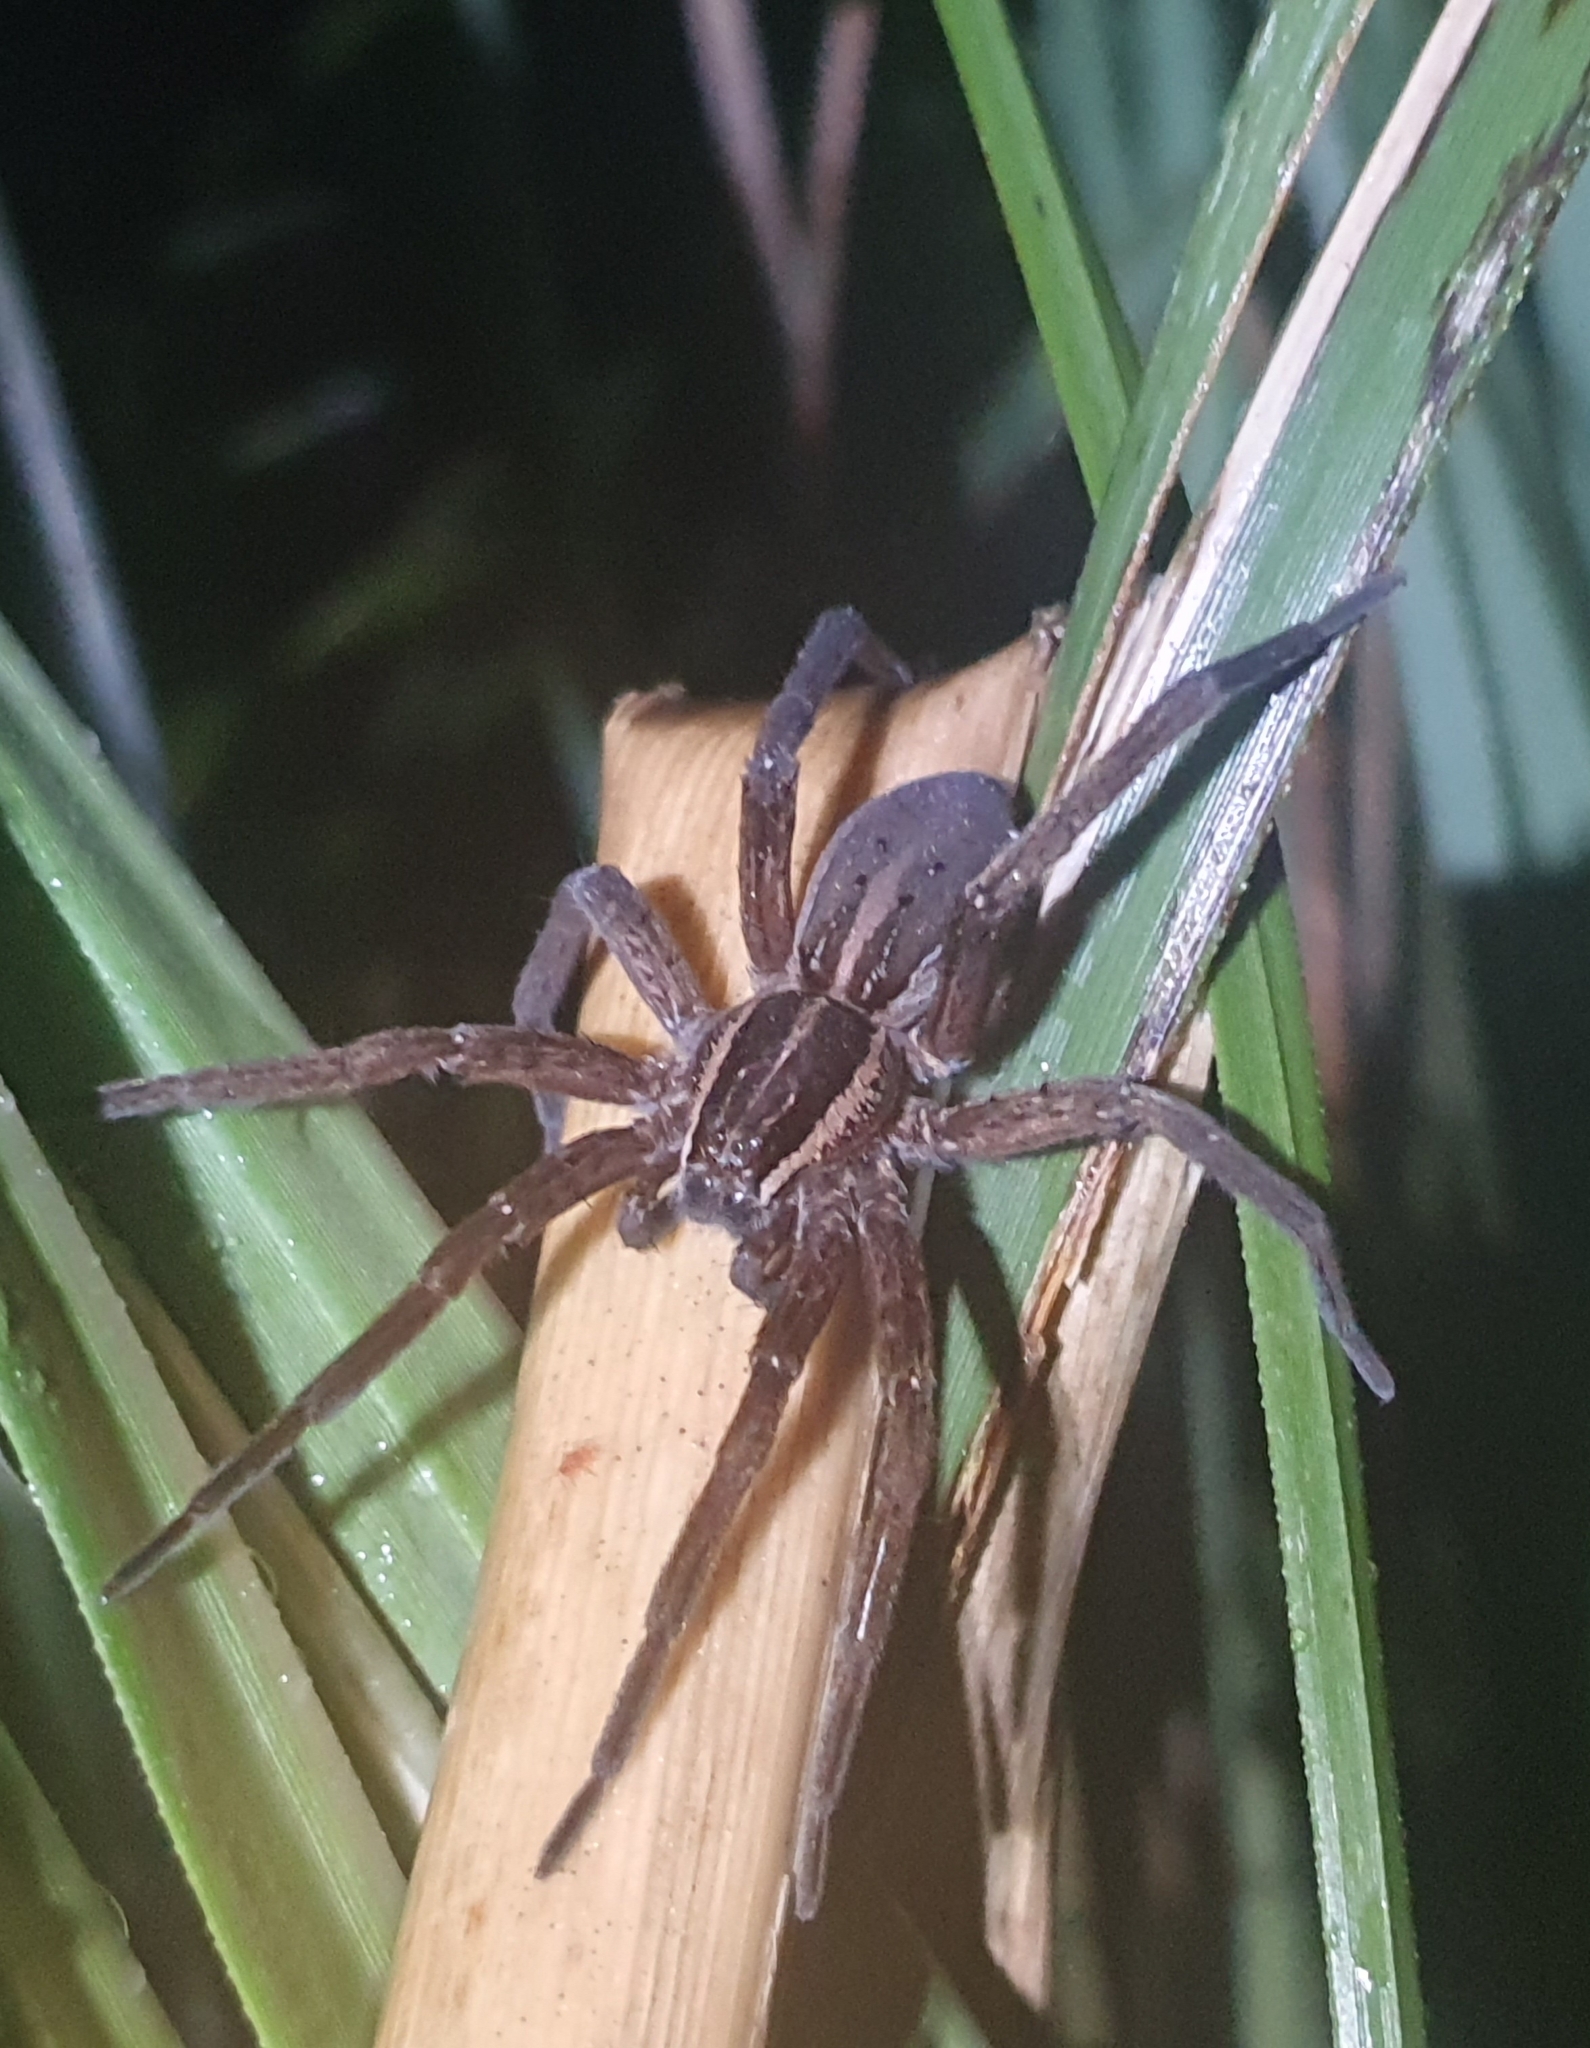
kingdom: Animalia
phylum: Arthropoda
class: Arachnida
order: Araneae
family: Pisauridae
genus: Dolomedes
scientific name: Dolomedes minor
